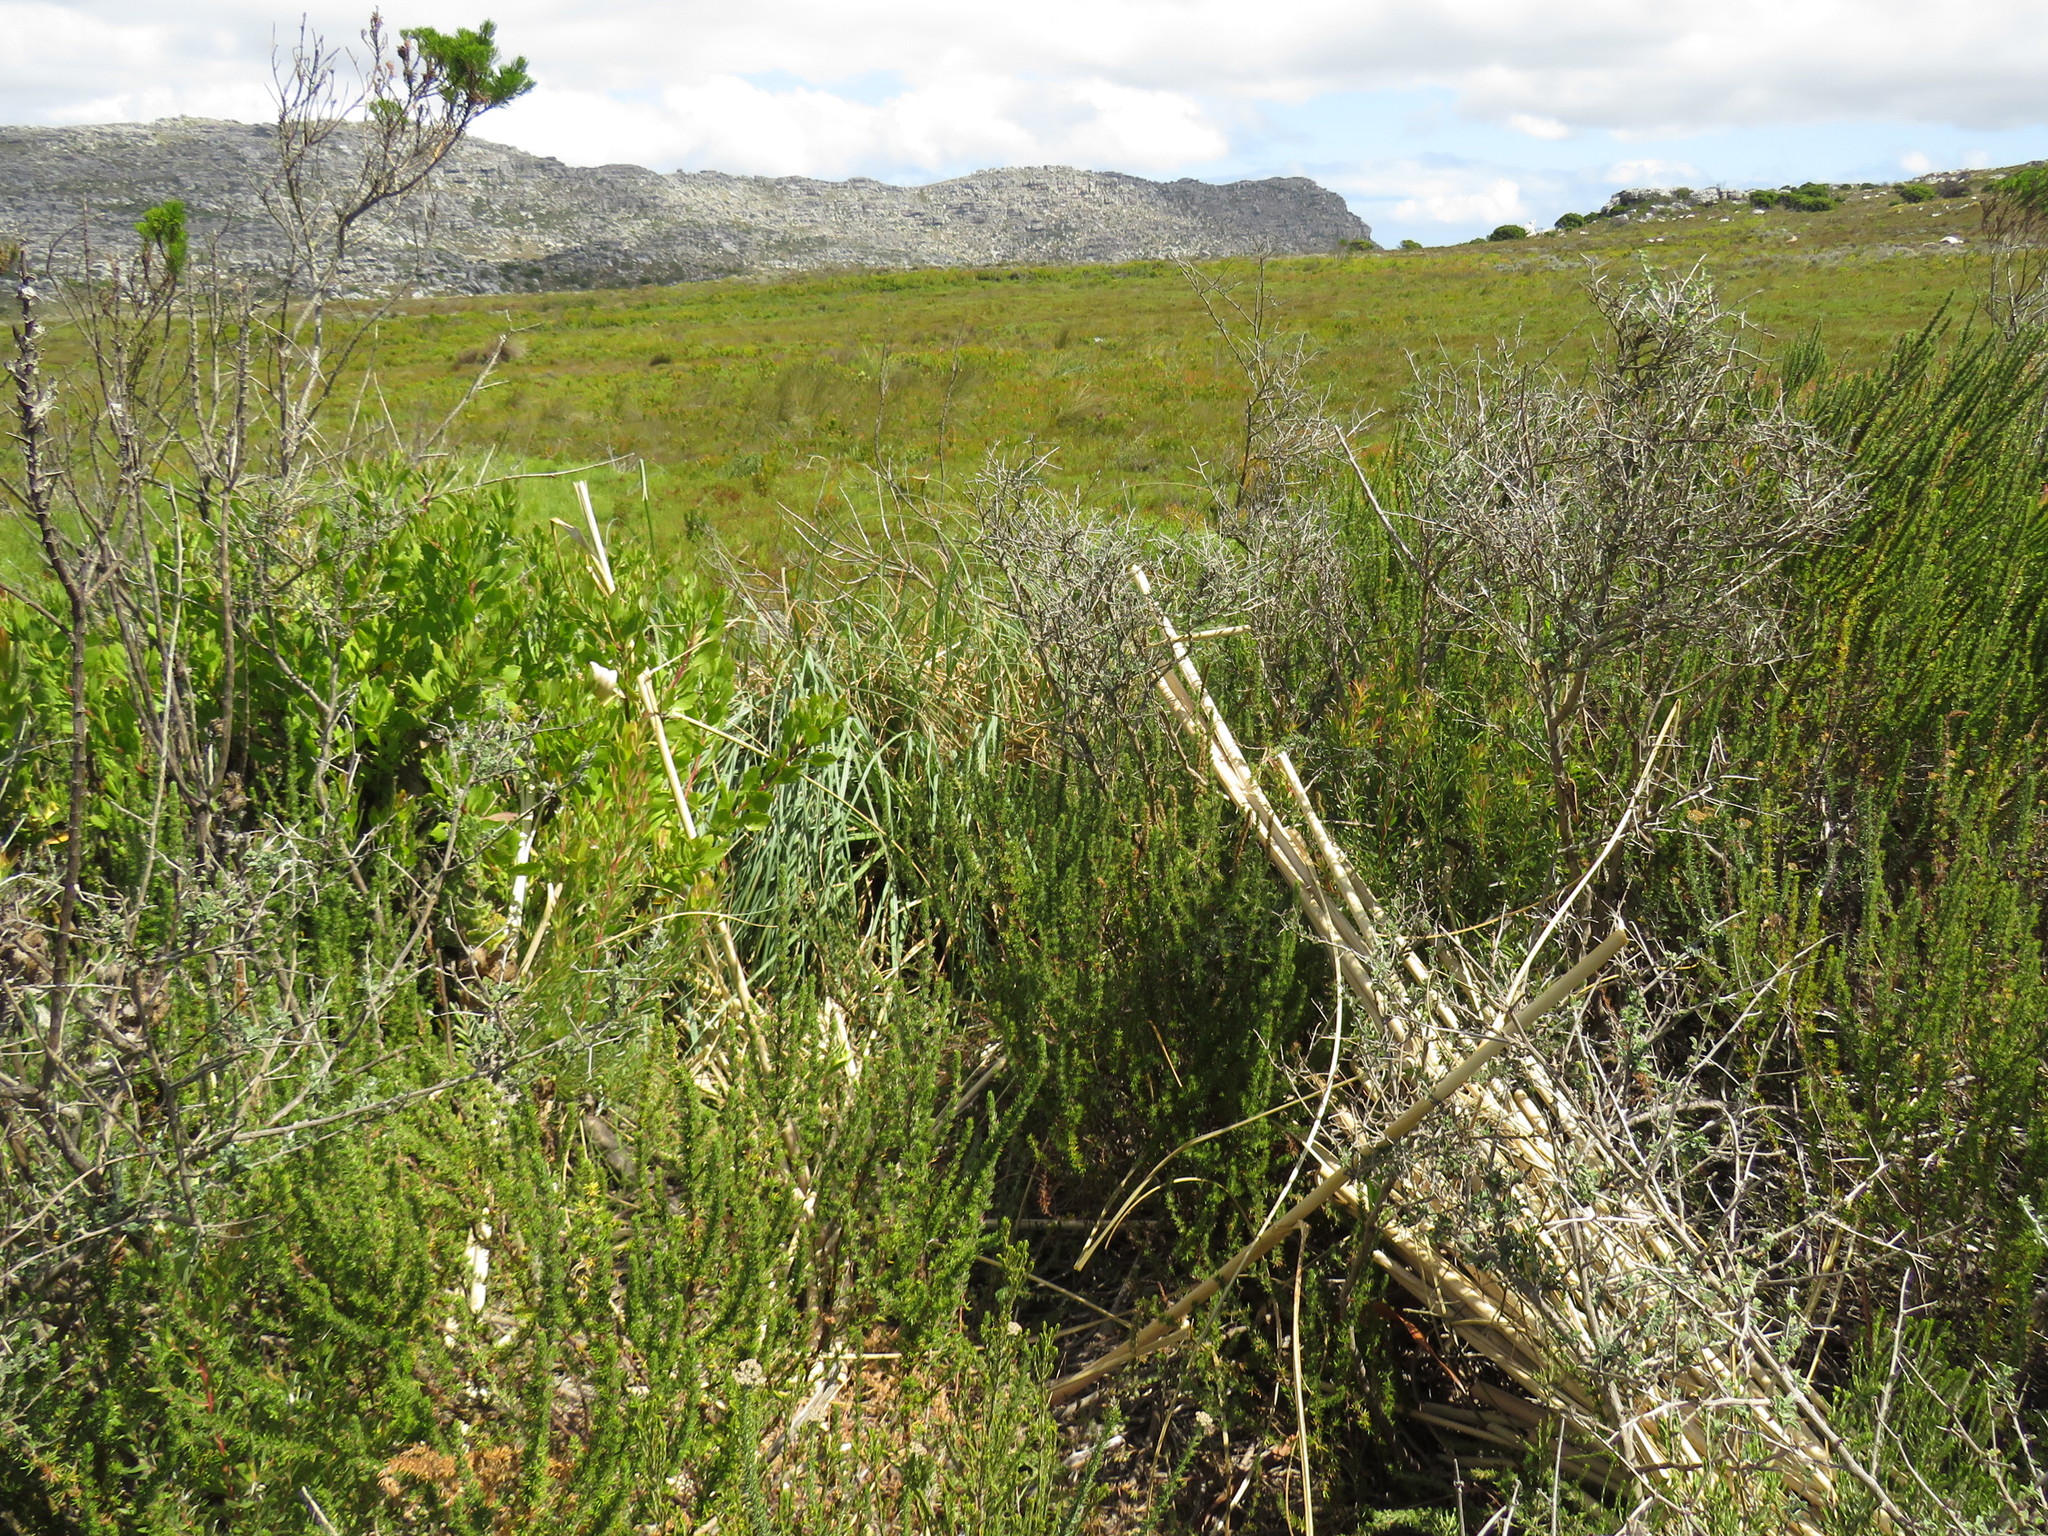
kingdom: Plantae
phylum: Tracheophyta
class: Liliopsida
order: Poales
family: Poaceae
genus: Cortaderia
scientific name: Cortaderia selloana
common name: Uruguayan pampas grass
